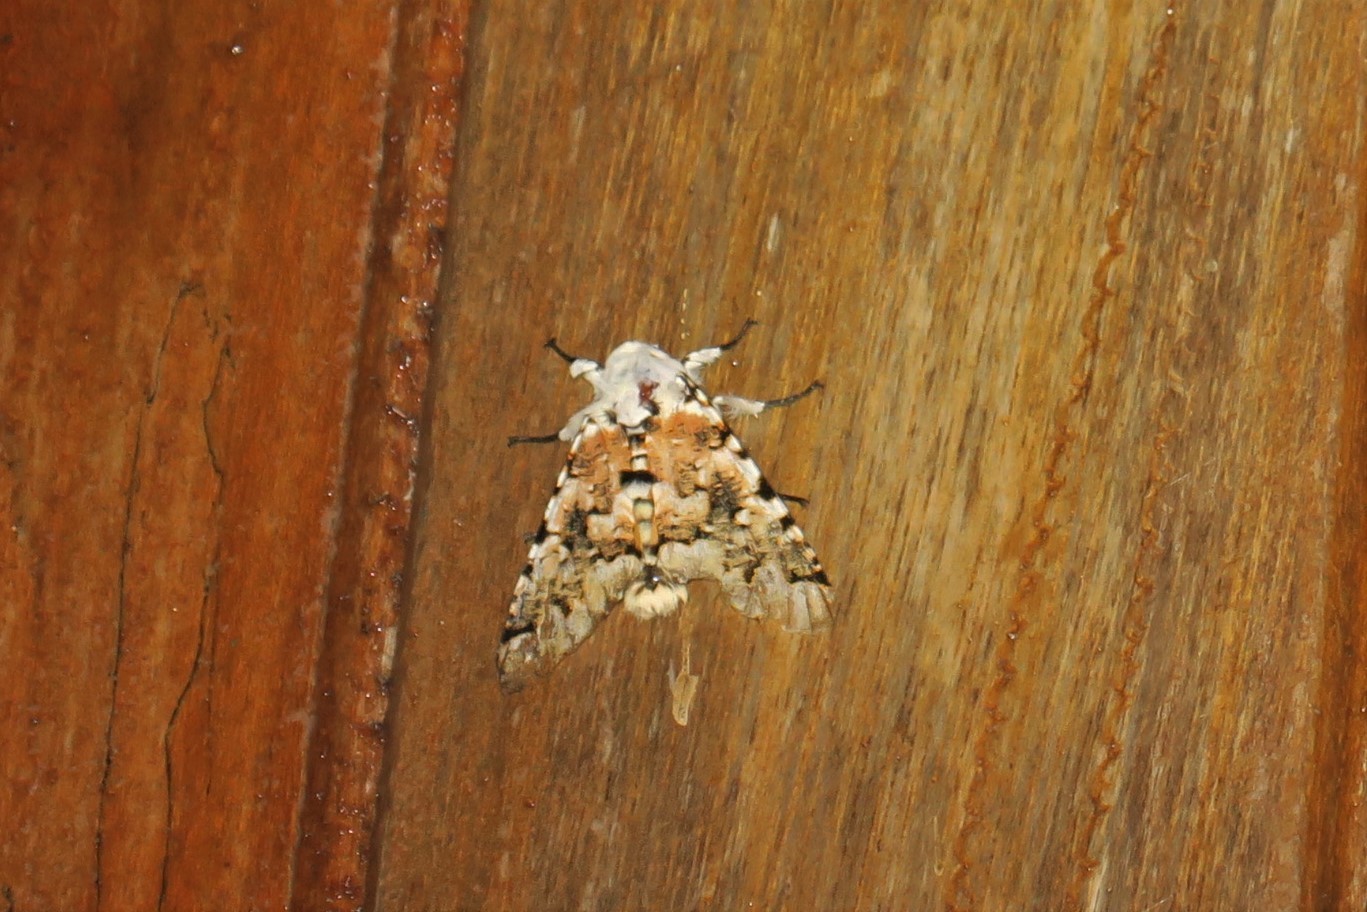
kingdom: Animalia
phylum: Arthropoda
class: Insecta
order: Lepidoptera
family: Noctuidae
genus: Bathyra
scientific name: Bathyra sagata
